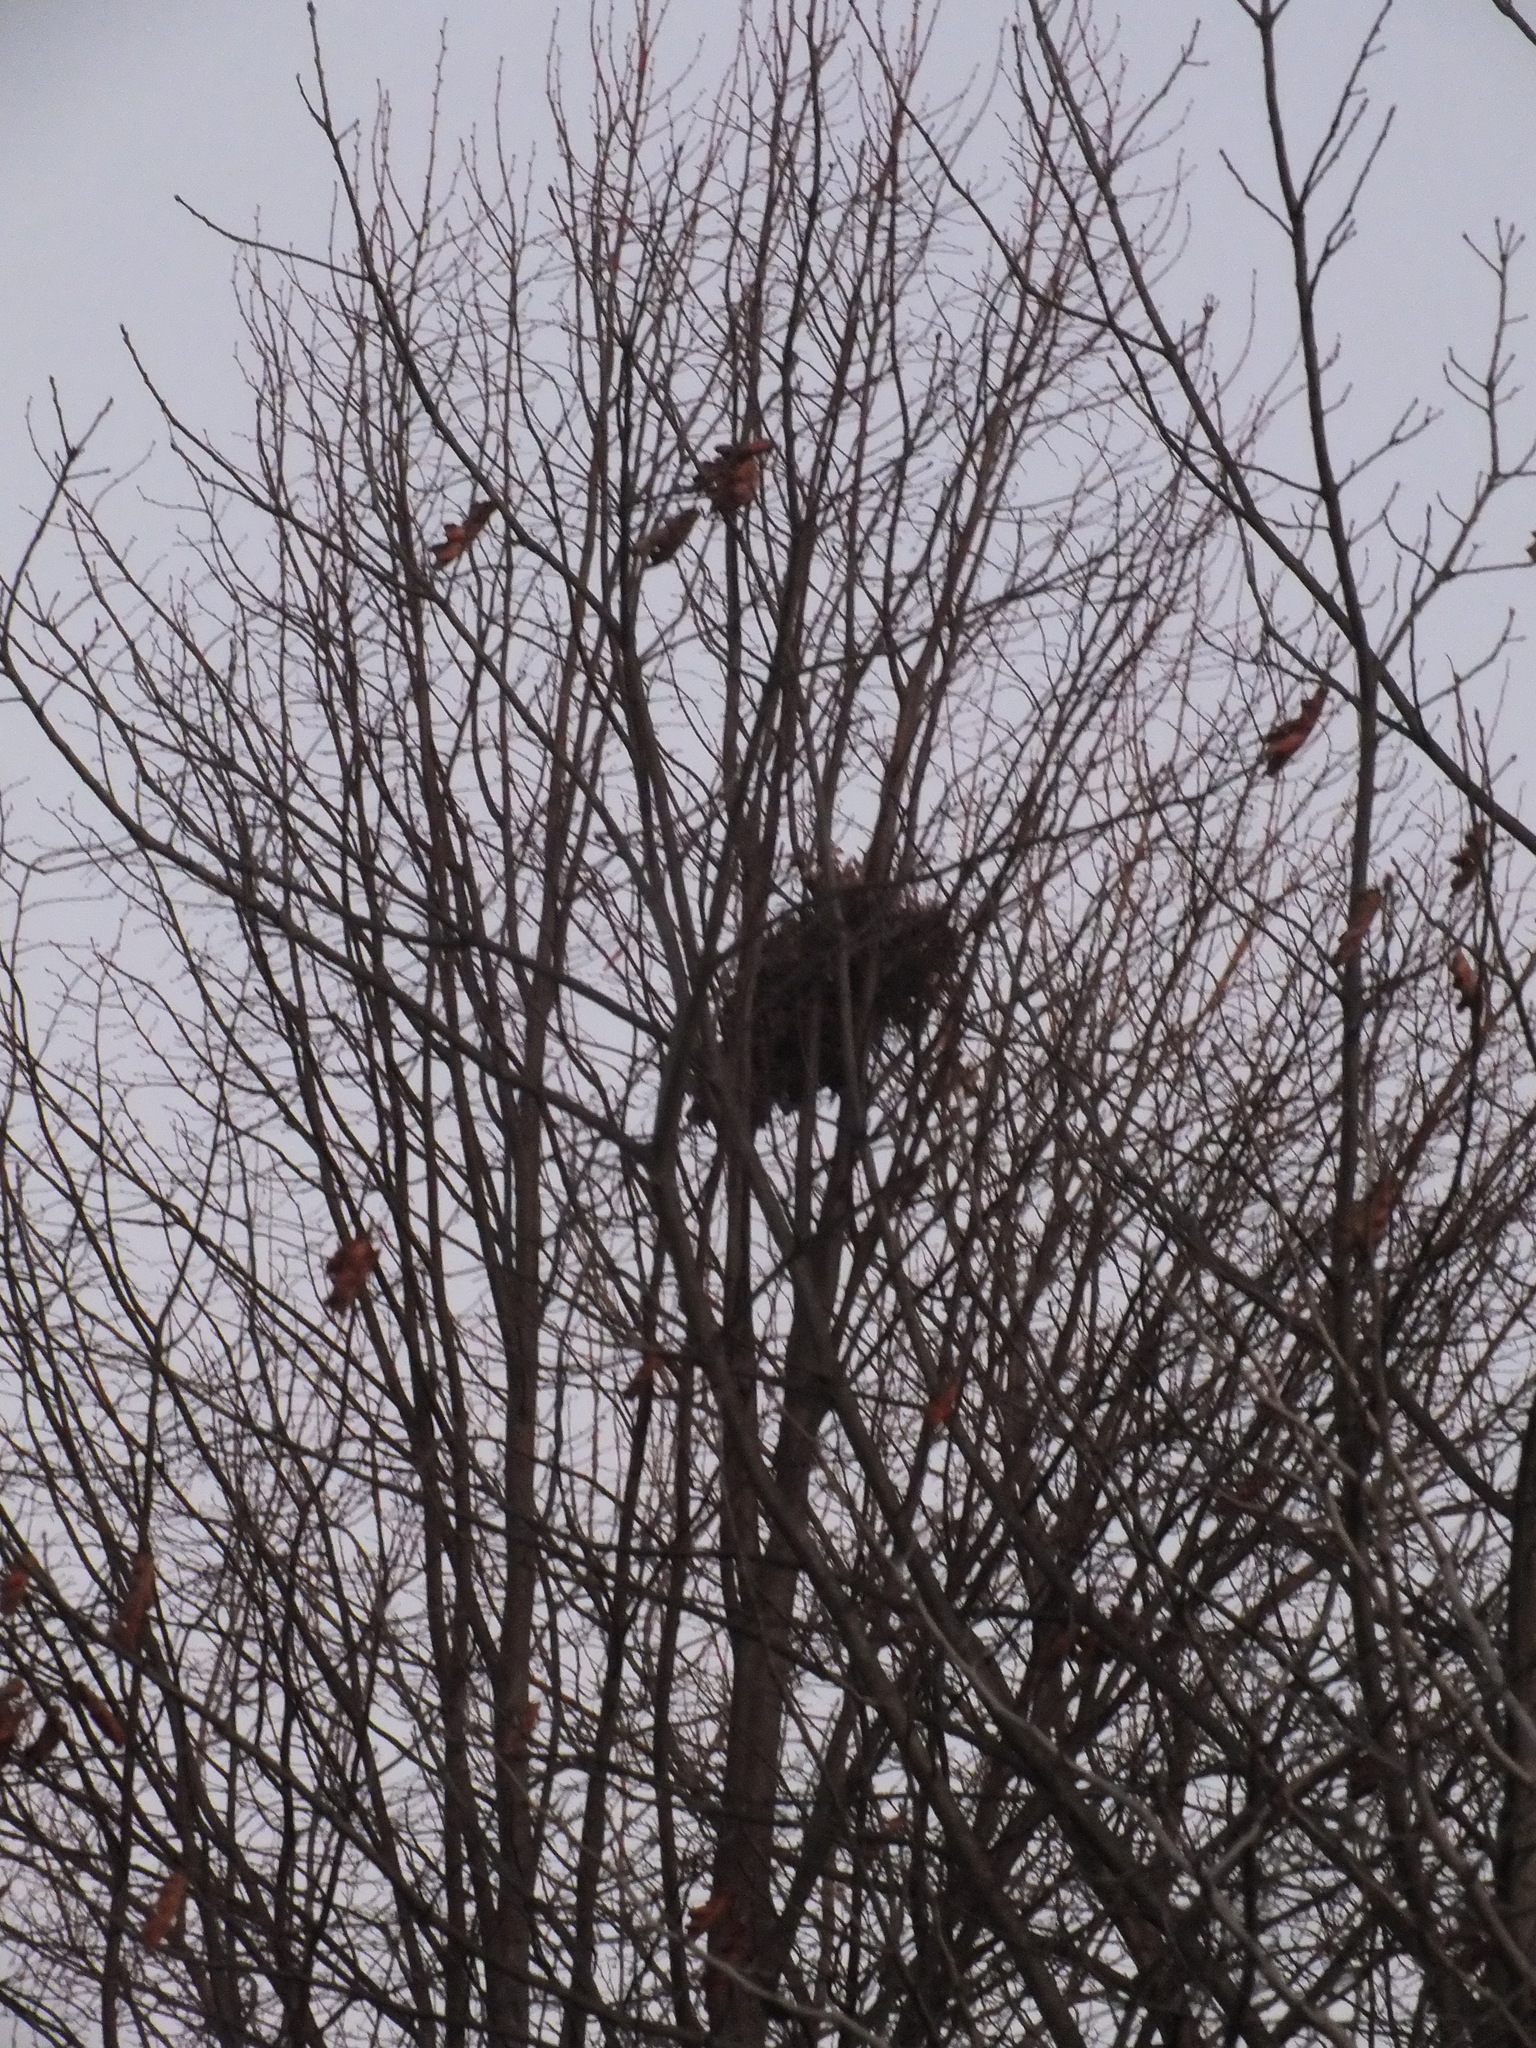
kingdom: Animalia
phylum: Chordata
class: Mammalia
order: Rodentia
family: Sciuridae
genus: Sciurus
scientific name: Sciurus carolinensis
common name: Eastern gray squirrel
